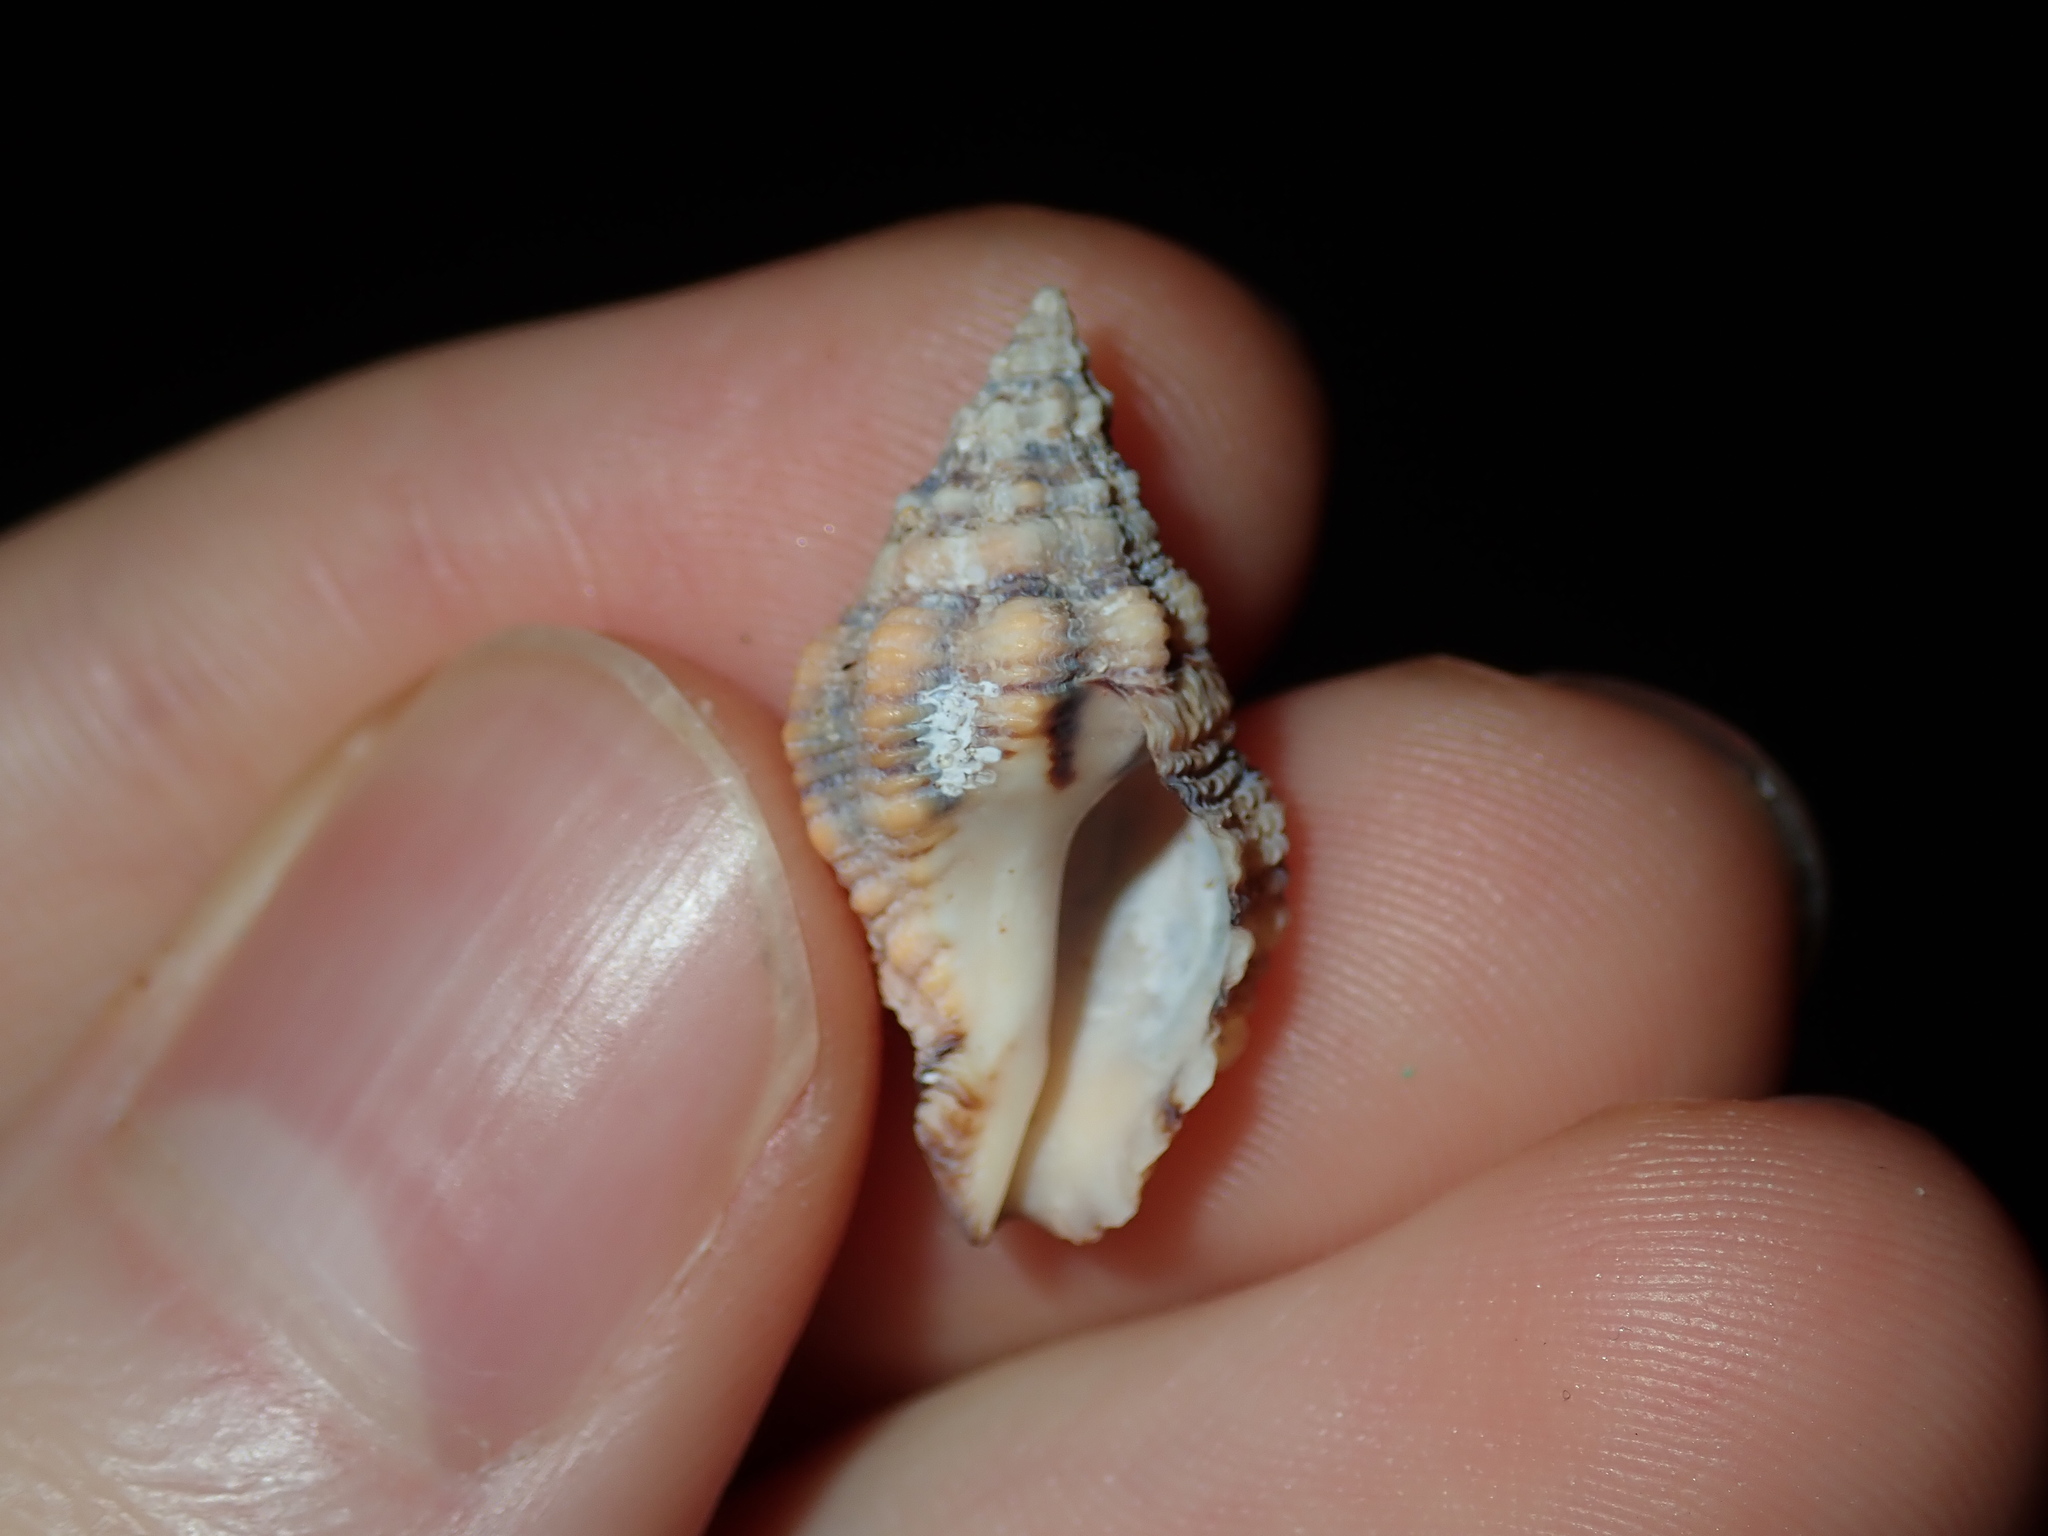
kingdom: Animalia
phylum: Mollusca
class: Gastropoda
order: Neogastropoda
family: Muricidae
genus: Cronia
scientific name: Cronia aurantiaca
